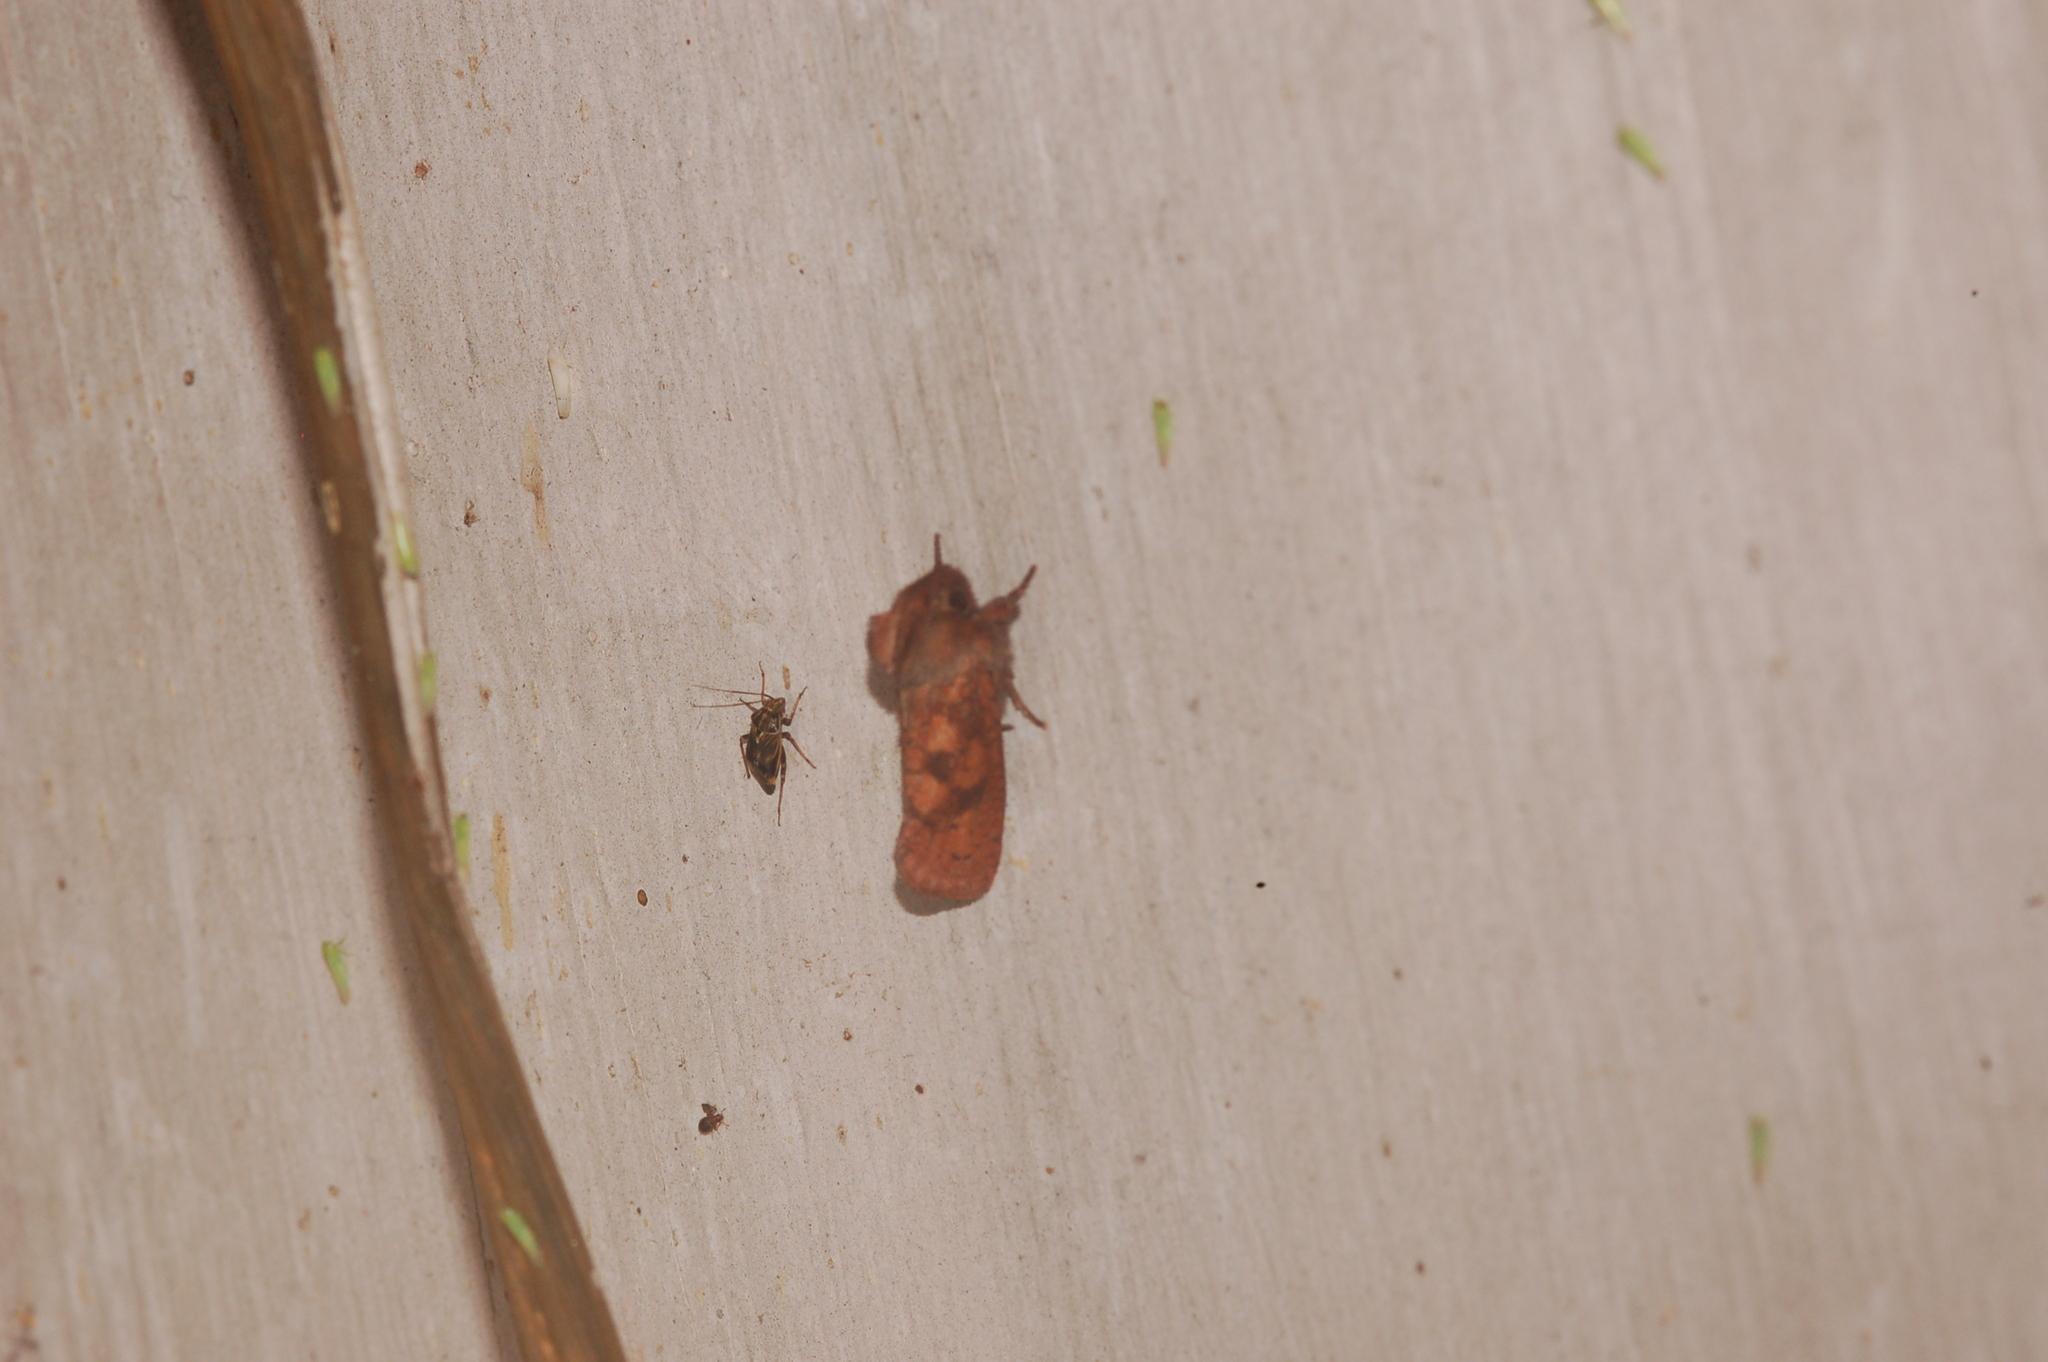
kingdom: Animalia
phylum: Arthropoda
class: Insecta
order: Lepidoptera
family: Tineidae
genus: Acrolophus
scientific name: Acrolophus plumifrontella
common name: Eastern grass tubeworm moth
